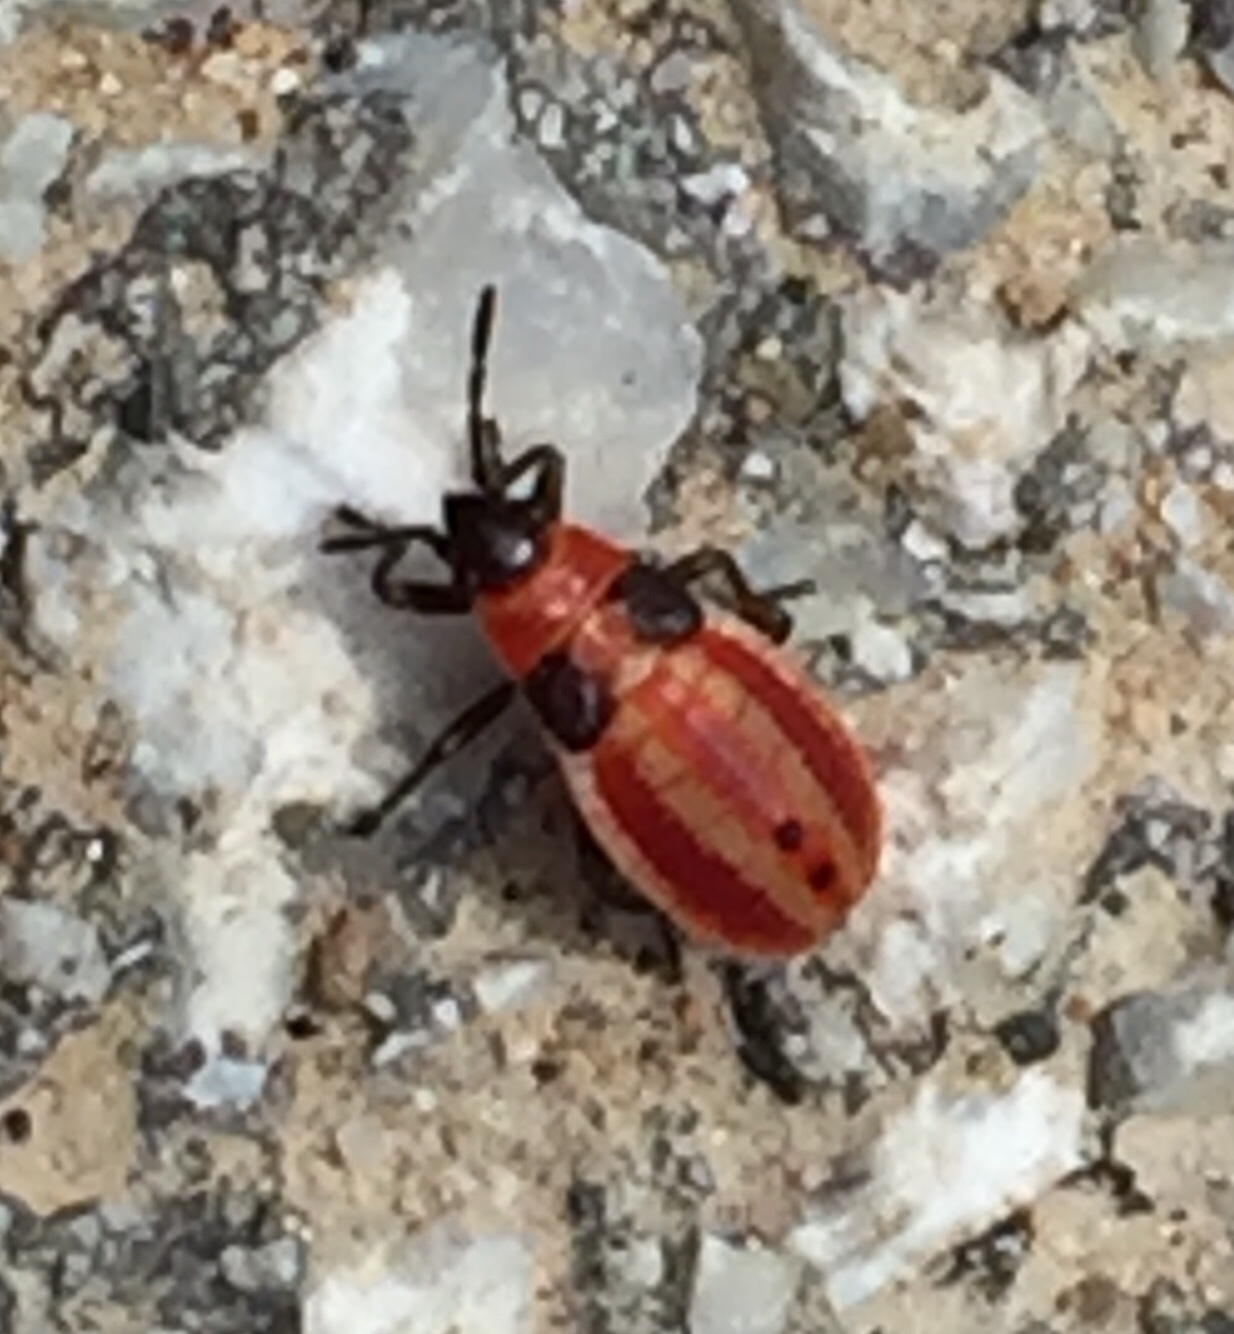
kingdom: Animalia
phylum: Arthropoda
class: Insecta
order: Hemiptera
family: Lygaeidae
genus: Lygaeus
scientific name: Lygaeus creticus
